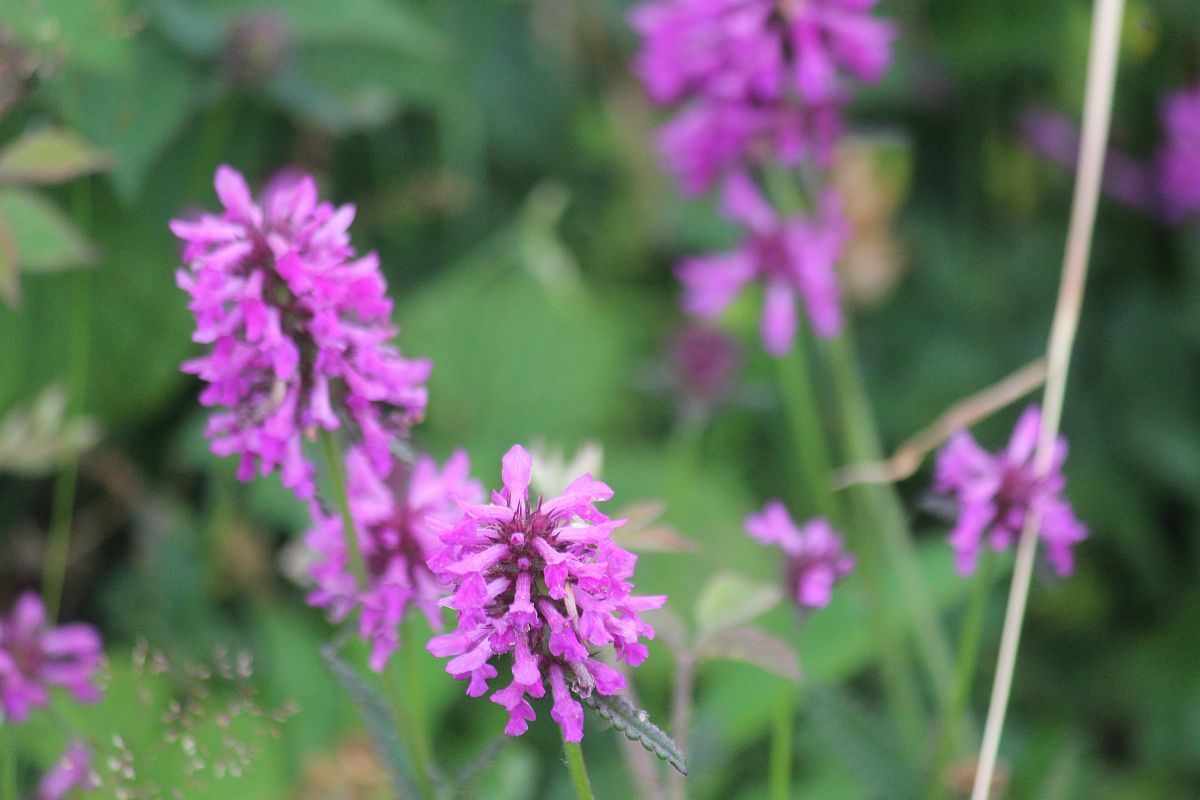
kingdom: Plantae
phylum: Tracheophyta
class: Magnoliopsida
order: Lamiales
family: Lamiaceae
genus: Betonica
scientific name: Betonica officinalis
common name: Bishop's-wort
